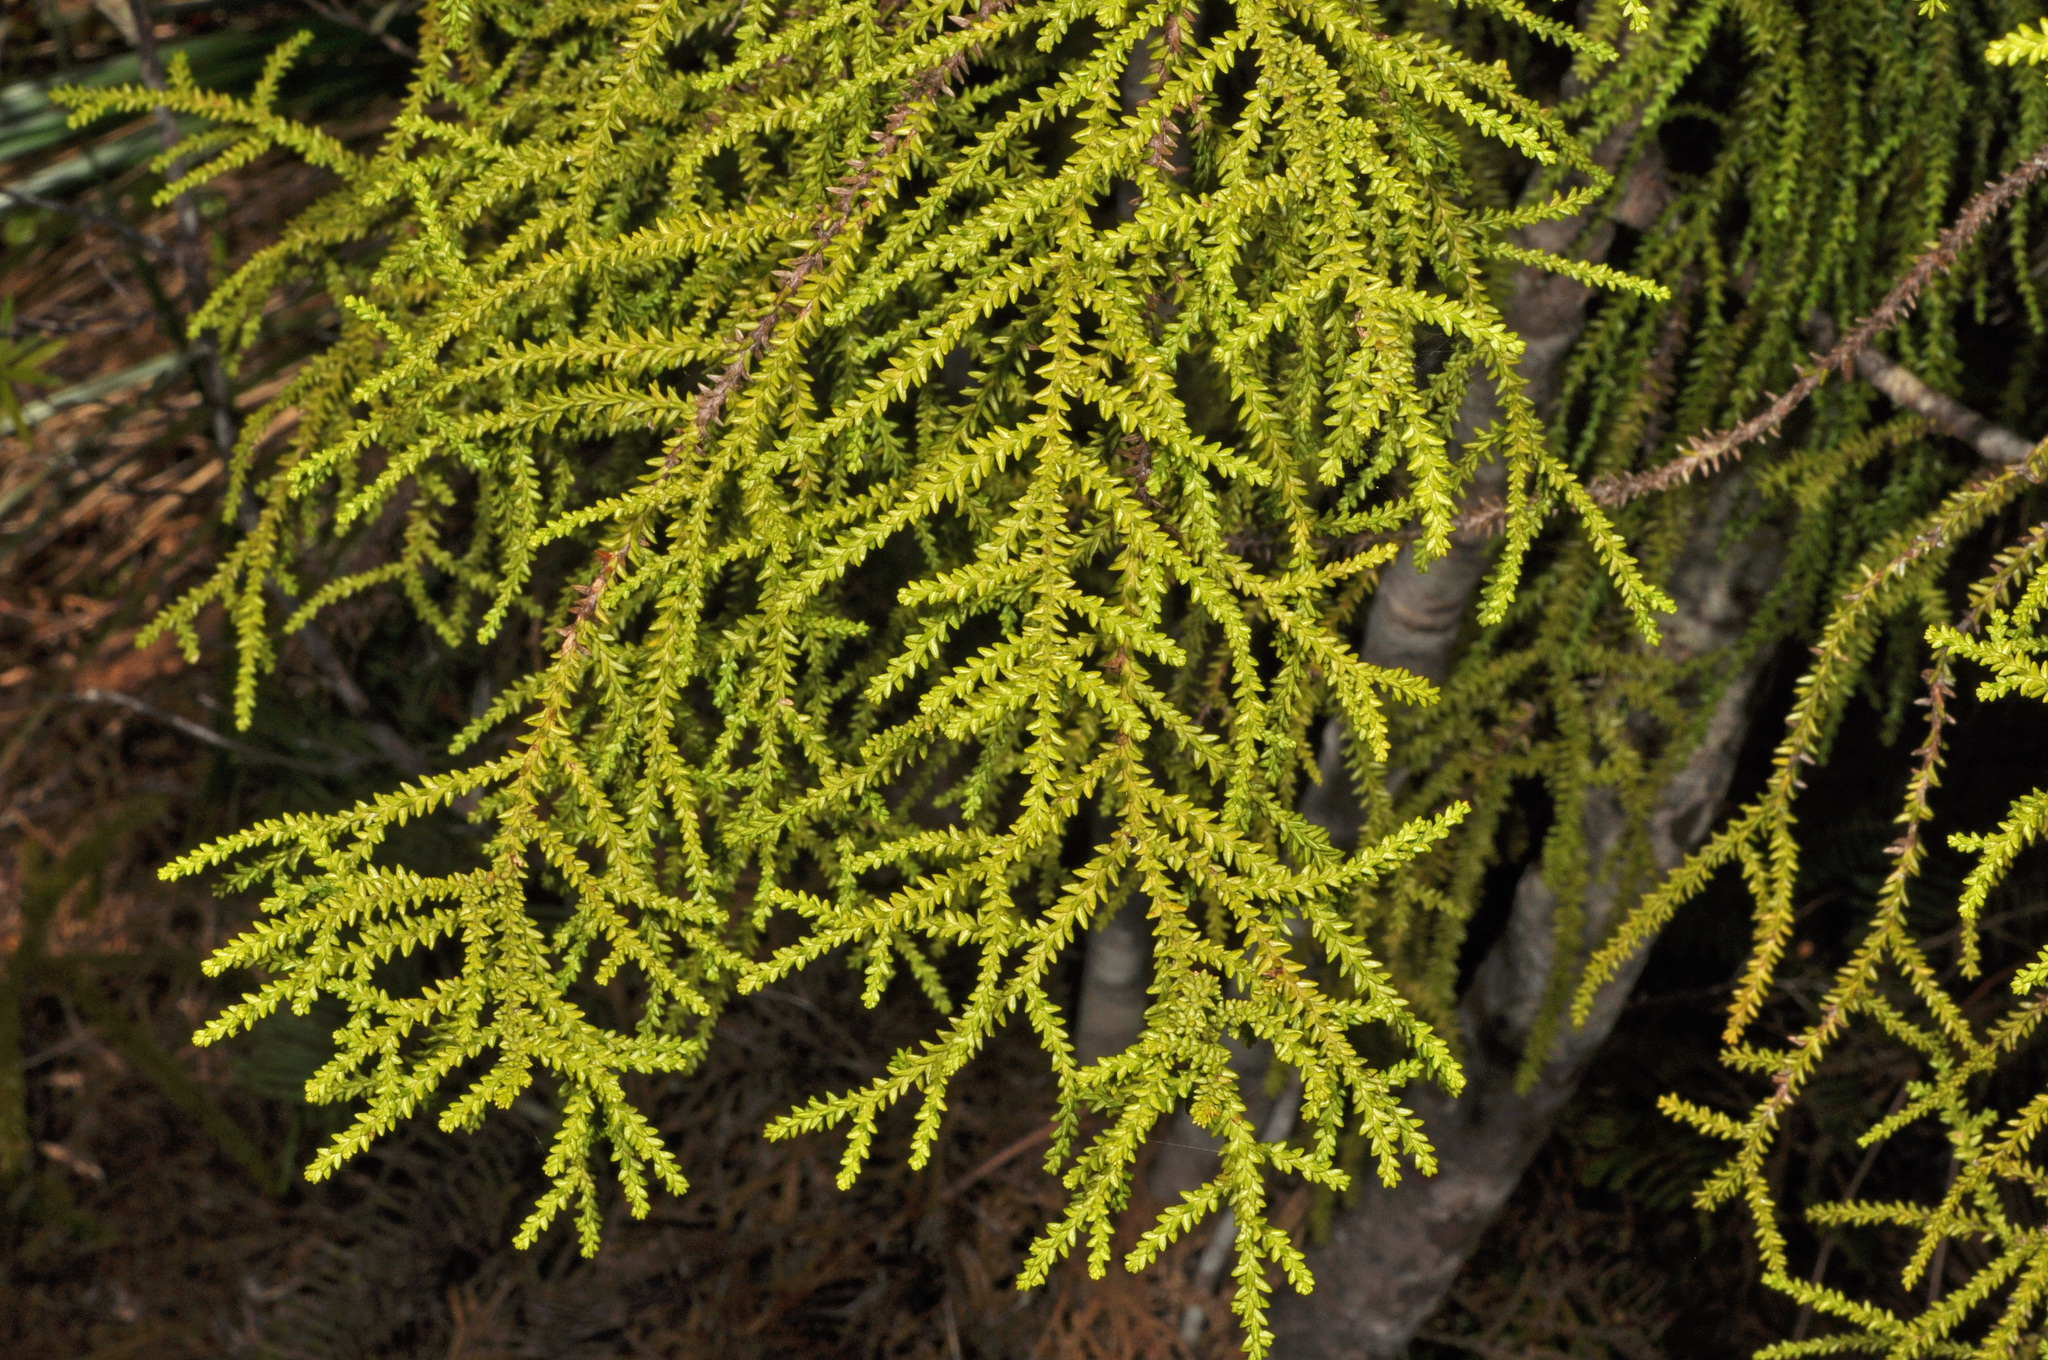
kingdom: Plantae
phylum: Tracheophyta
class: Pinopsida
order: Pinales
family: Podocarpaceae
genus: Lepidothamnus
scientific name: Lepidothamnus intermedius
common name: Yellow silver pine
